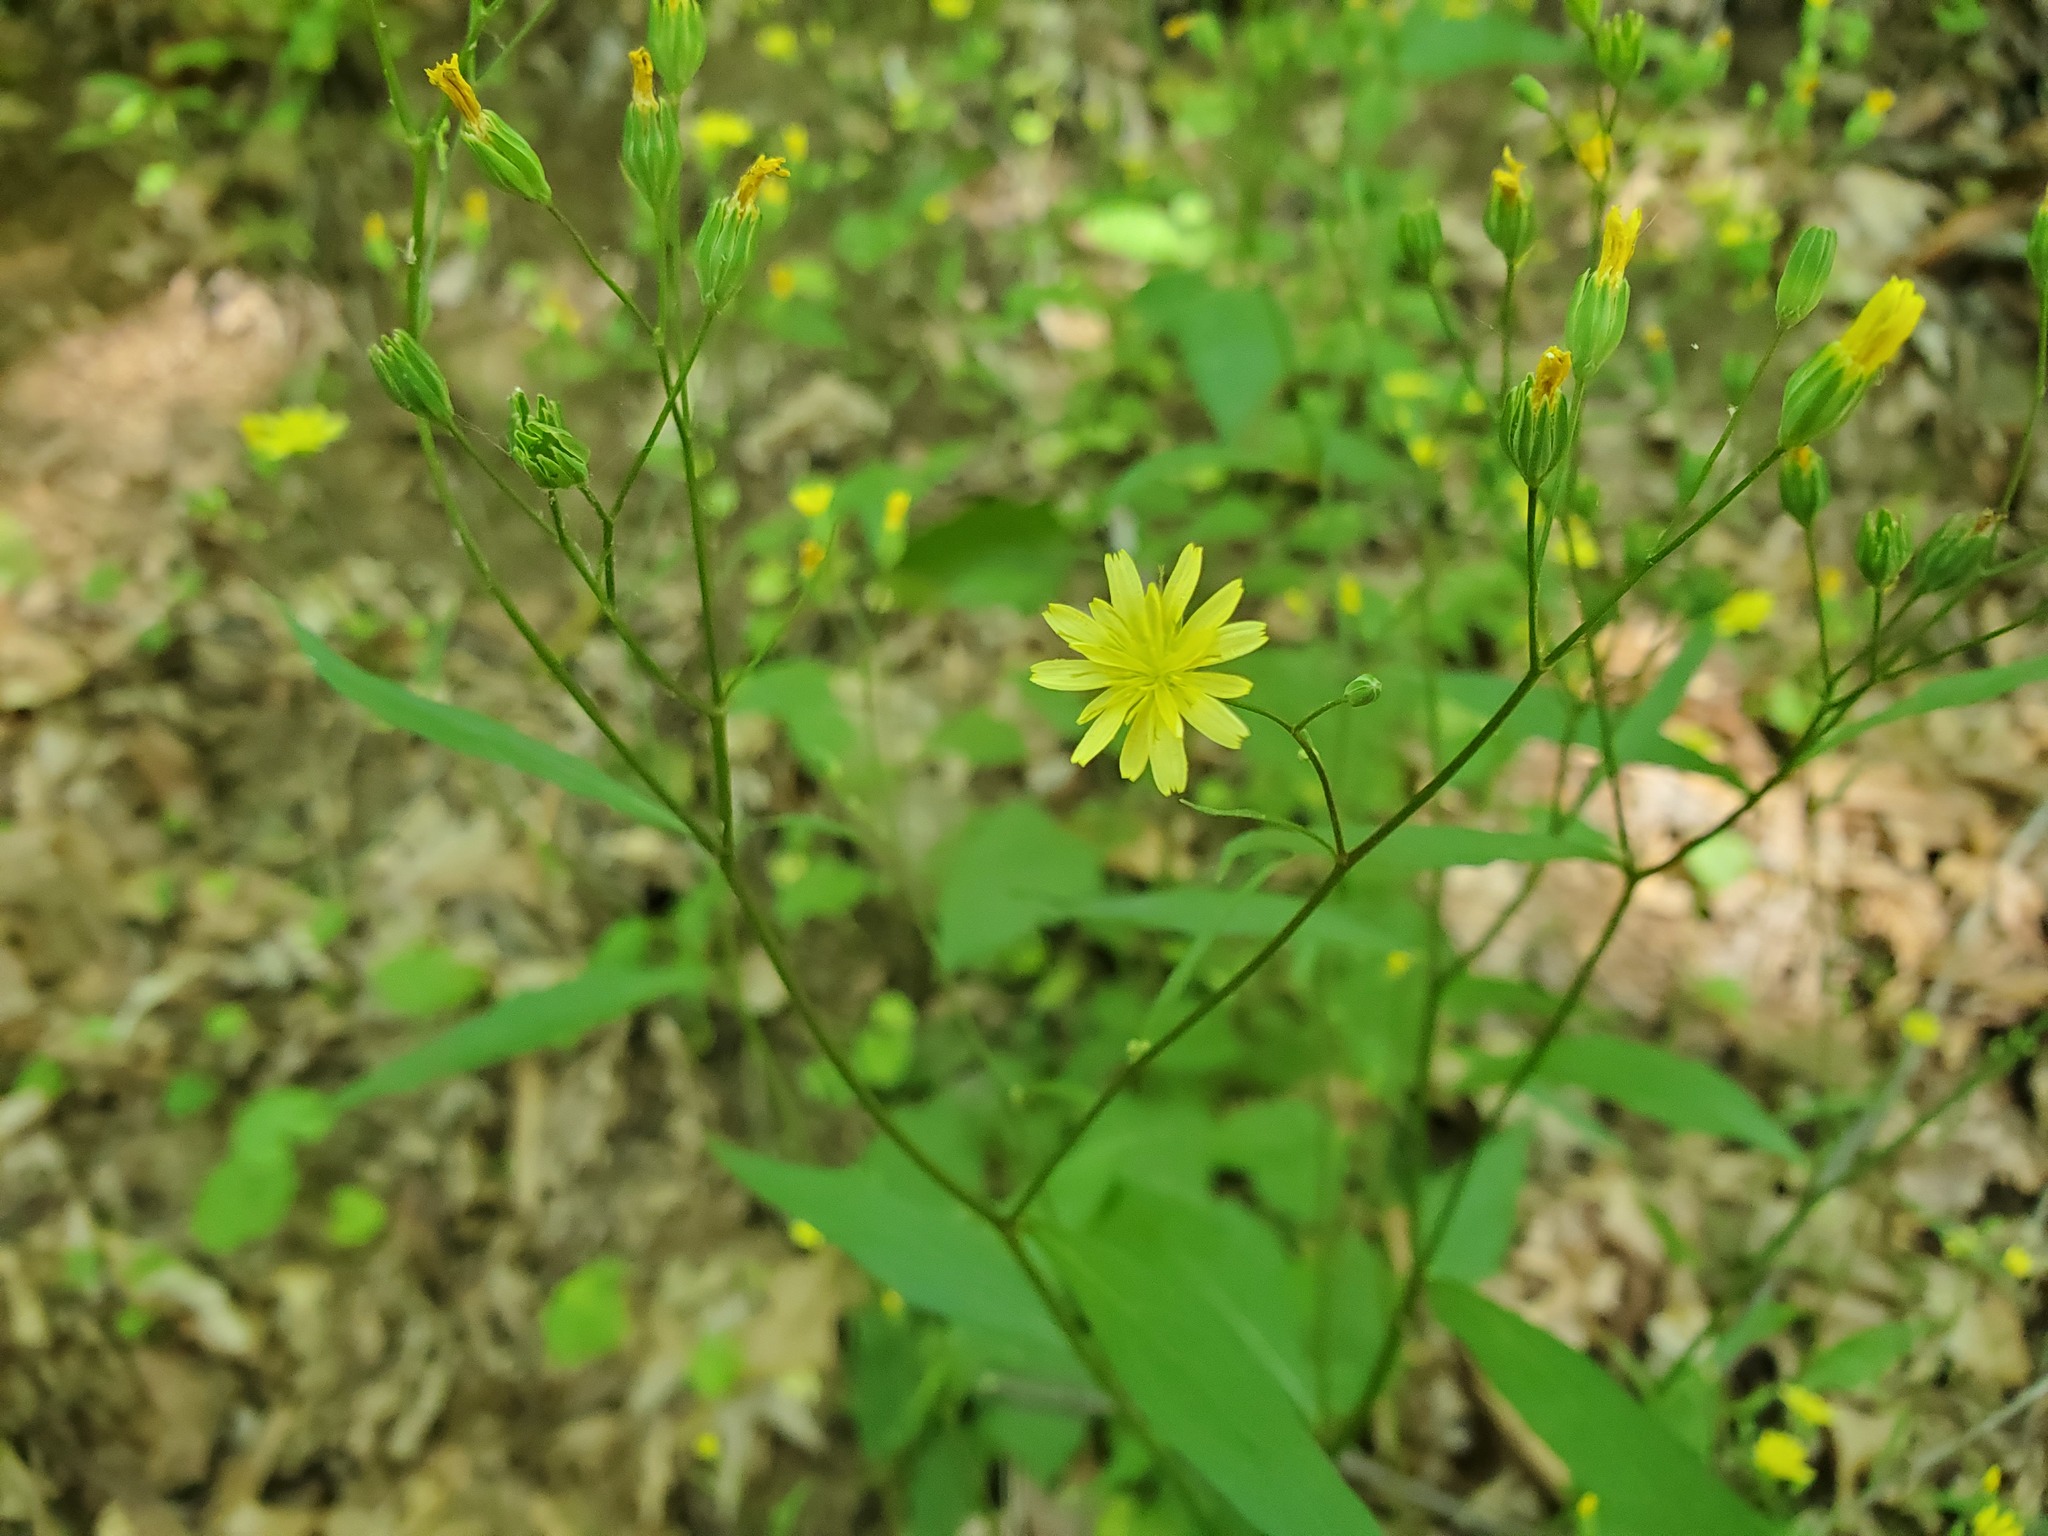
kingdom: Plantae
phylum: Tracheophyta
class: Magnoliopsida
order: Asterales
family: Asteraceae
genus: Lapsana
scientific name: Lapsana communis
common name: Nipplewort
